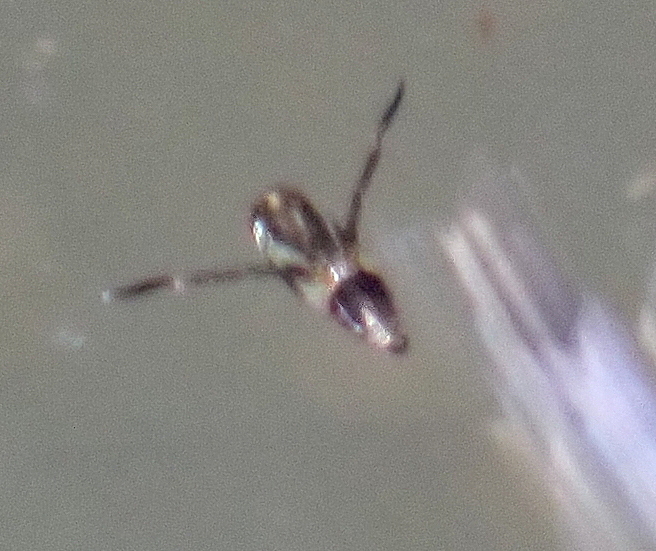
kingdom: Animalia
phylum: Arthropoda
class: Insecta
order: Hemiptera
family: Notonectidae
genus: Buenoa
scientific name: Buenoa
